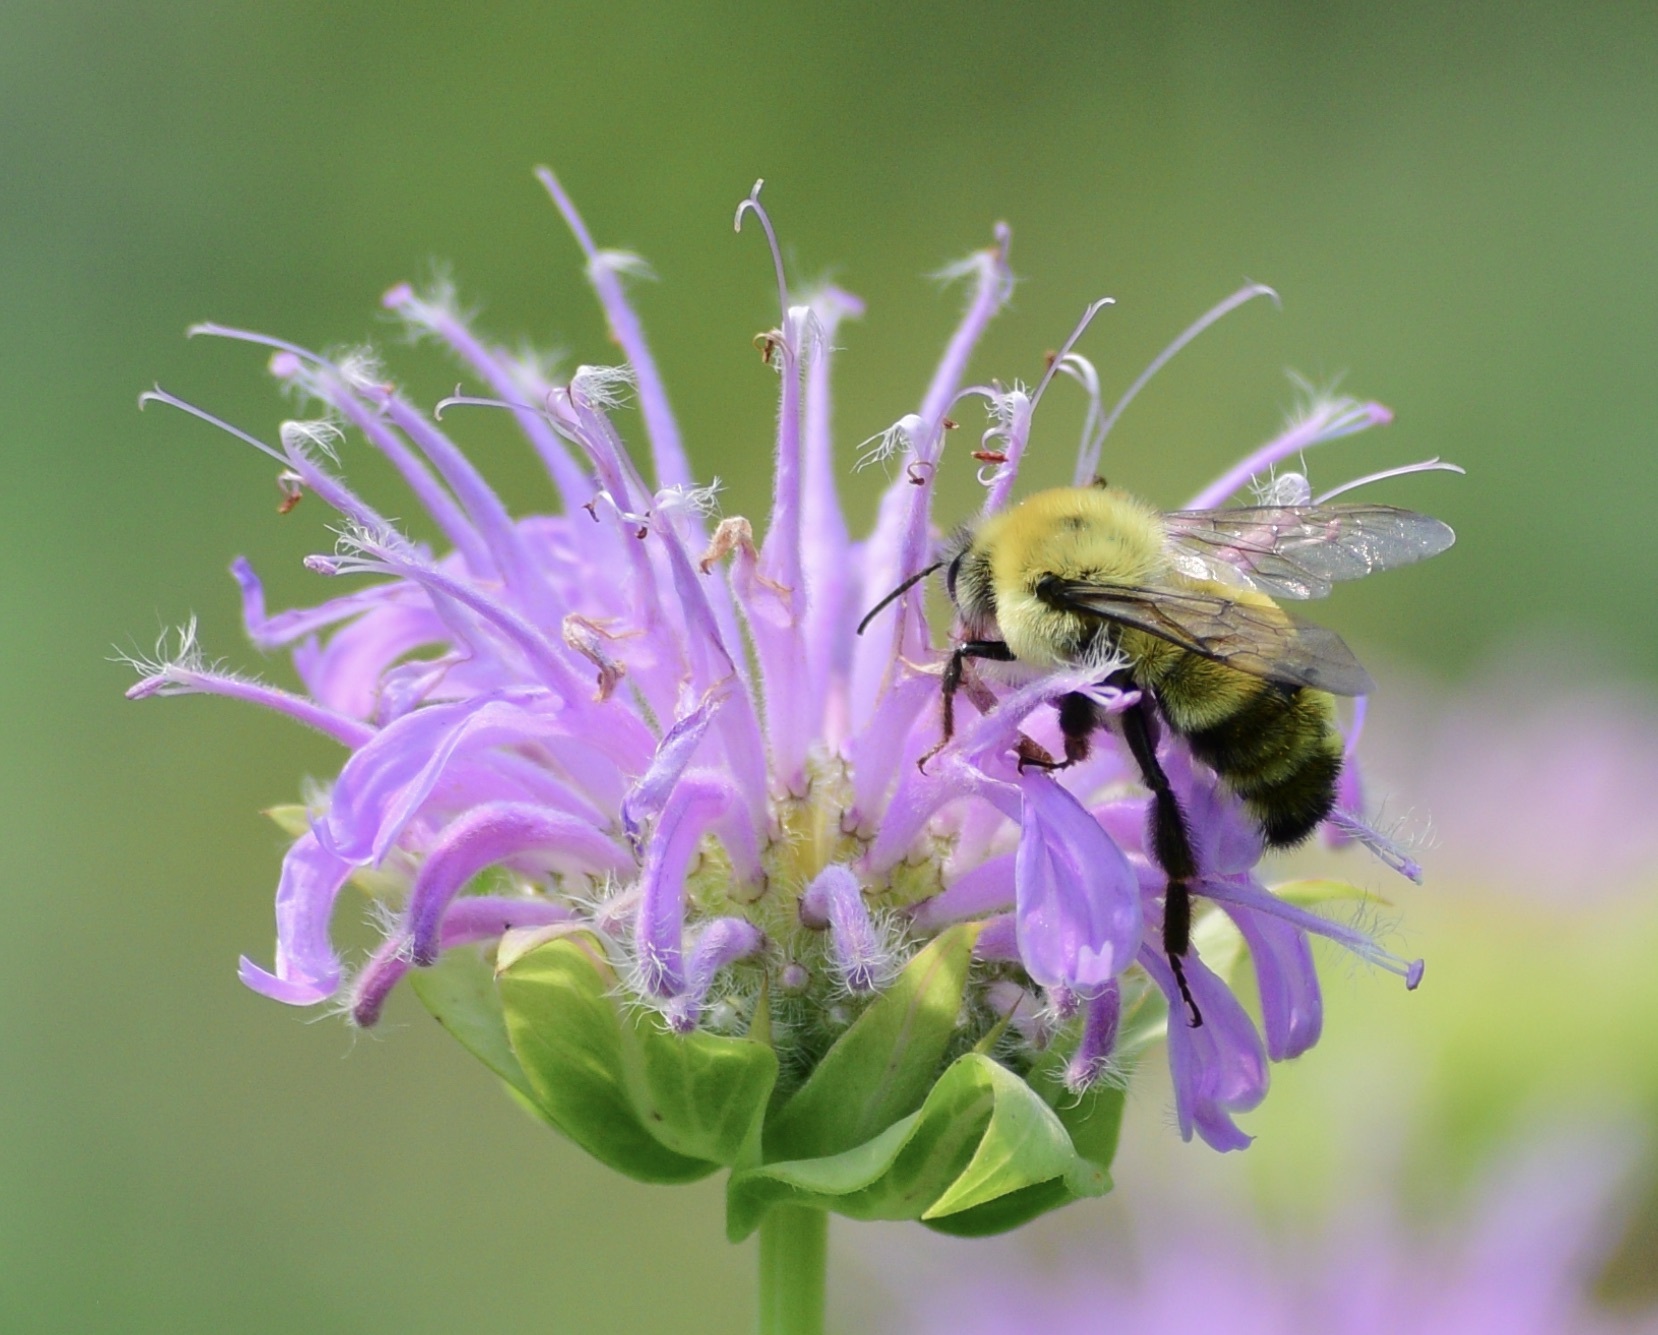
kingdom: Animalia
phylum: Arthropoda
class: Insecta
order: Hymenoptera
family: Apidae
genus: Bombus
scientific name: Bombus bimaculatus
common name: Two-spotted bumble bee
